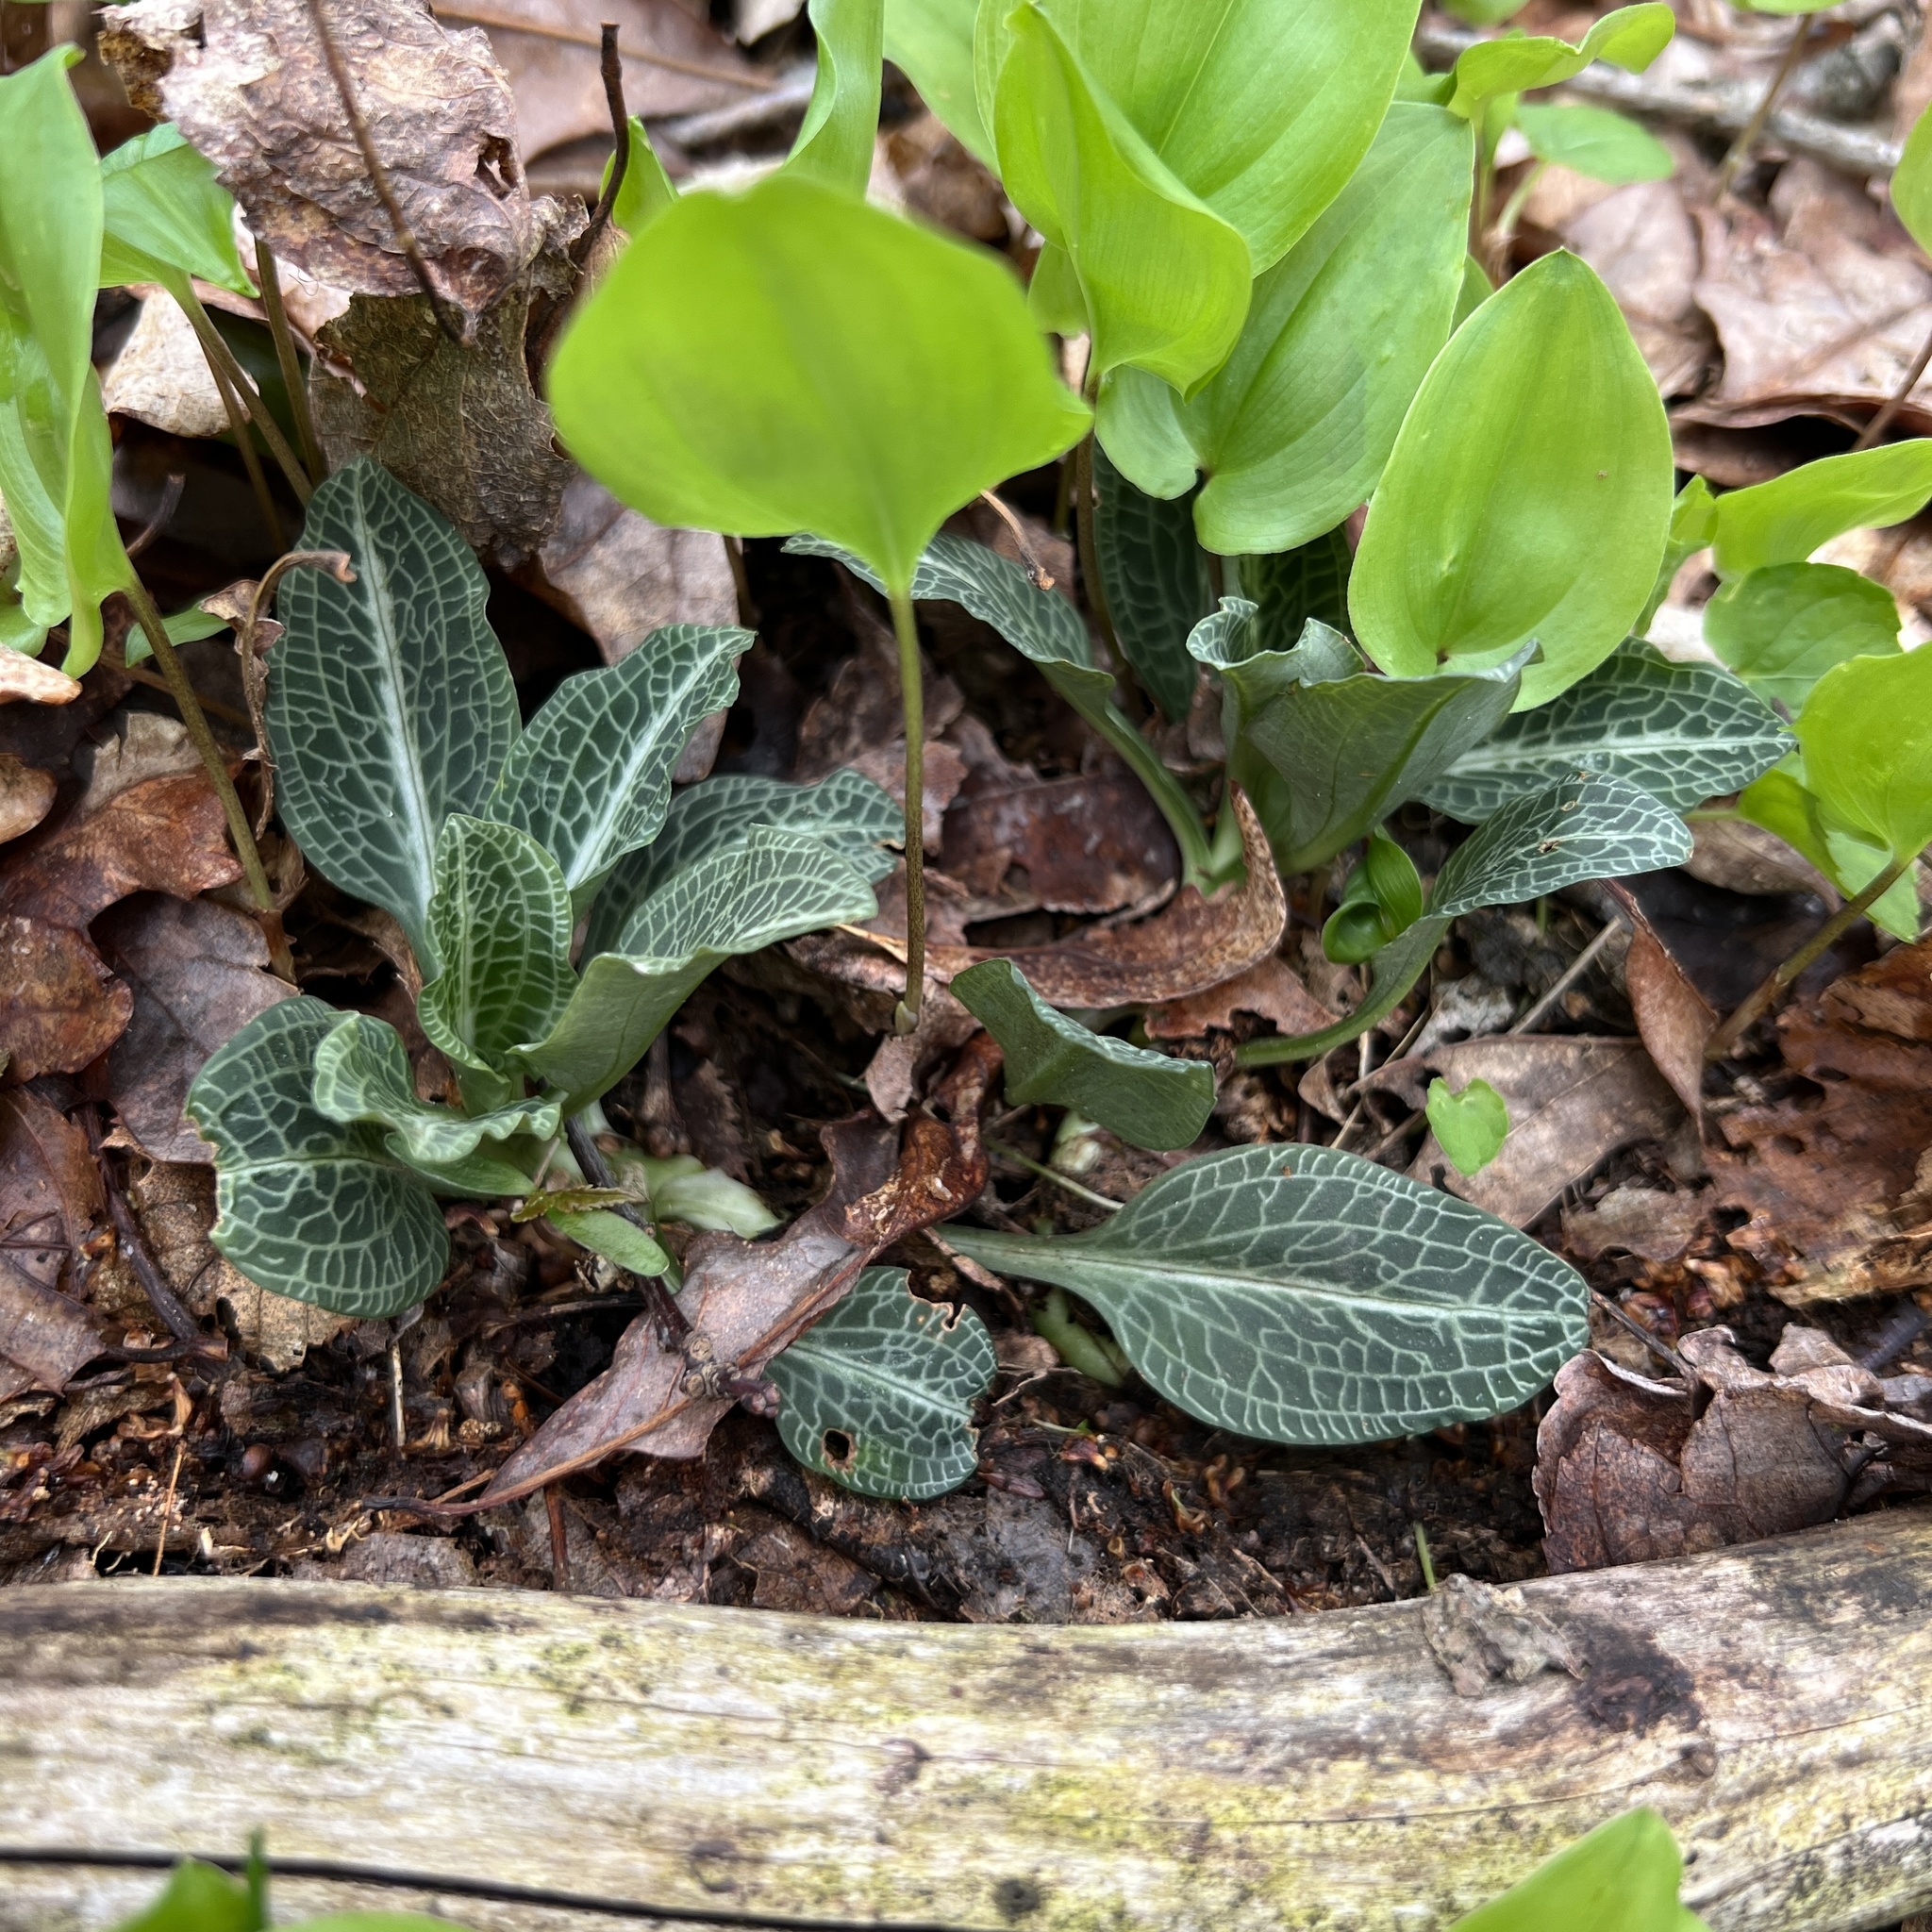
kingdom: Plantae
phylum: Tracheophyta
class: Liliopsida
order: Asparagales
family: Orchidaceae
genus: Goodyera
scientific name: Goodyera pubescens
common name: Downy rattlesnake-plantain
